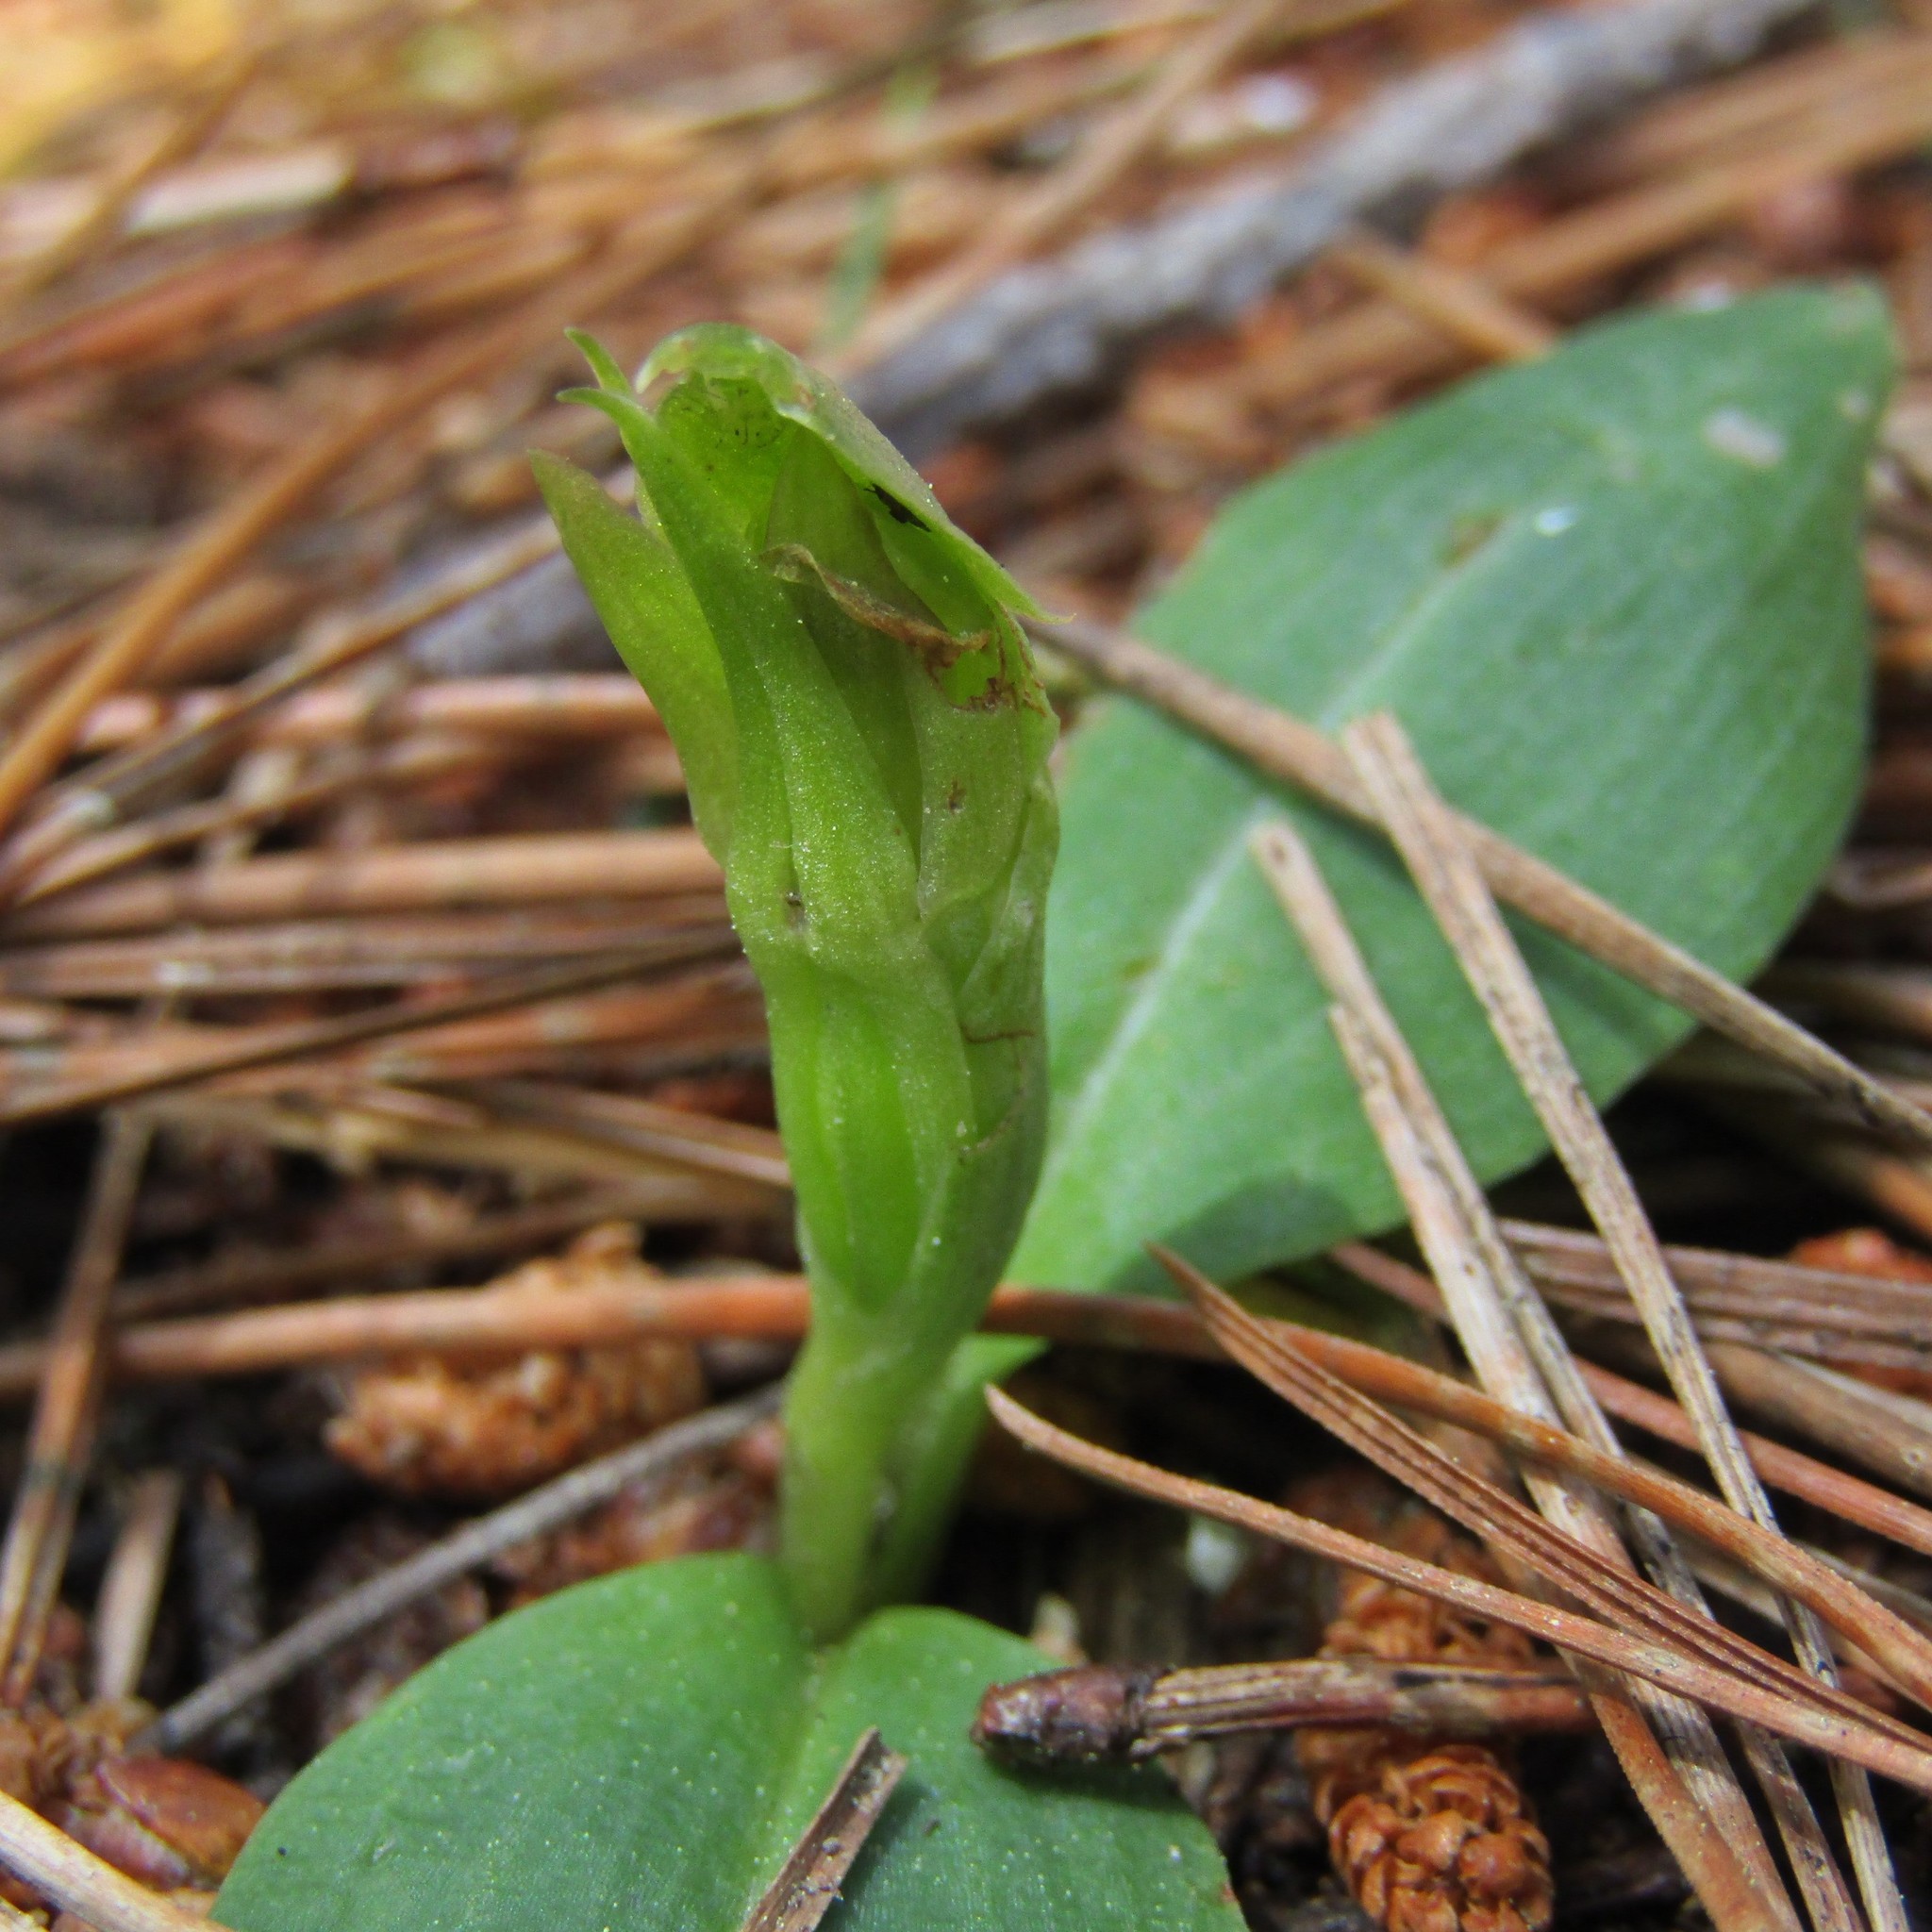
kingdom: Plantae
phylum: Tracheophyta
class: Liliopsida
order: Asparagales
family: Orchidaceae
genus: Chiloglottis
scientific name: Chiloglottis cornuta
